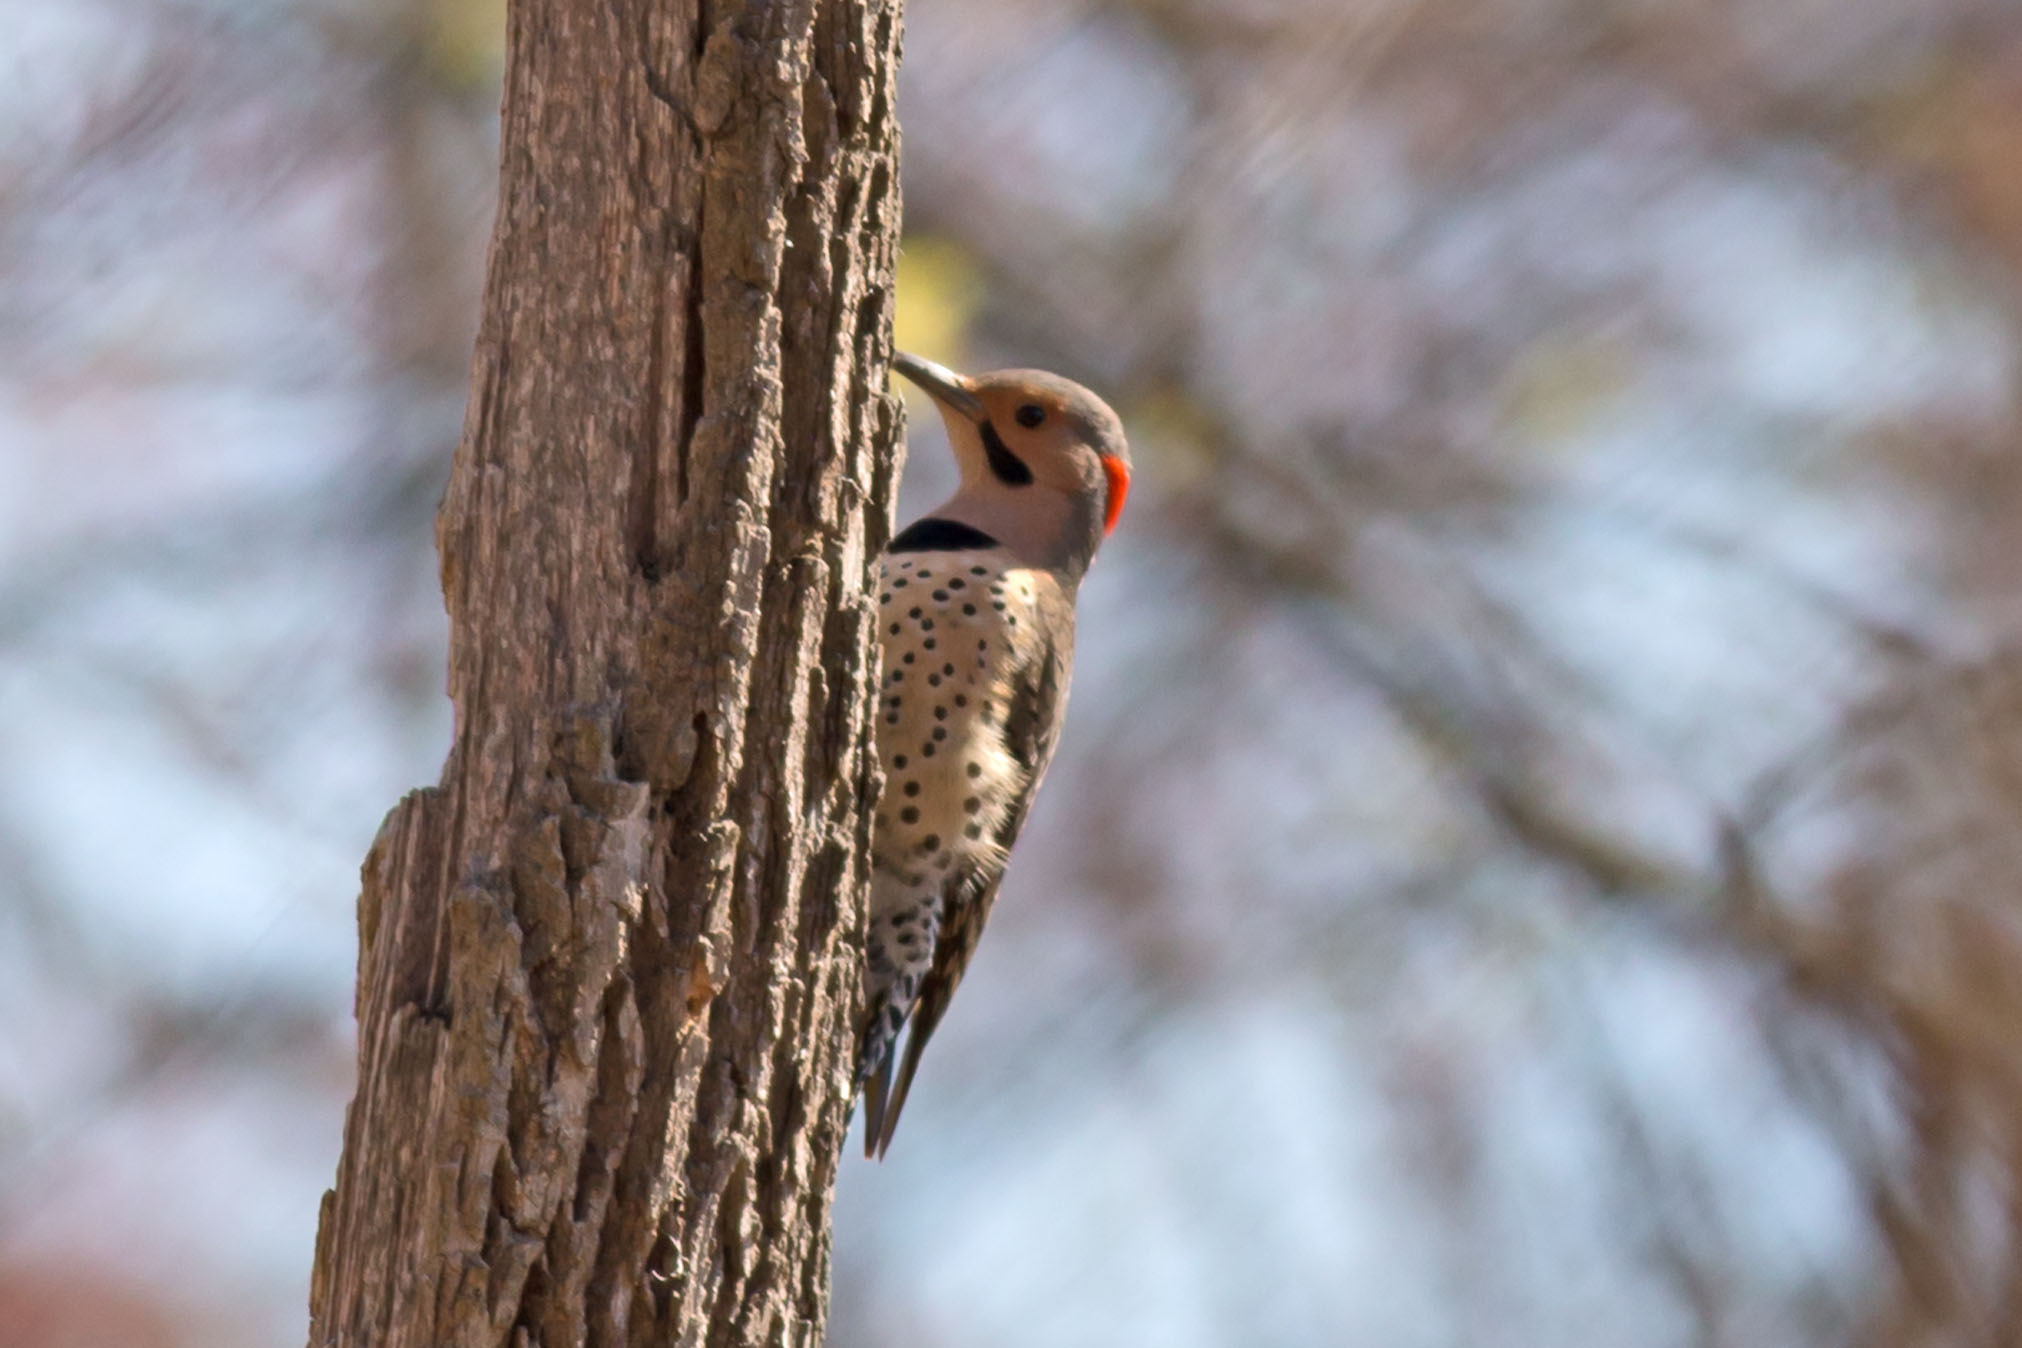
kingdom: Animalia
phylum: Chordata
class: Aves
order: Piciformes
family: Picidae
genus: Colaptes
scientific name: Colaptes auratus
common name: Northern flicker
